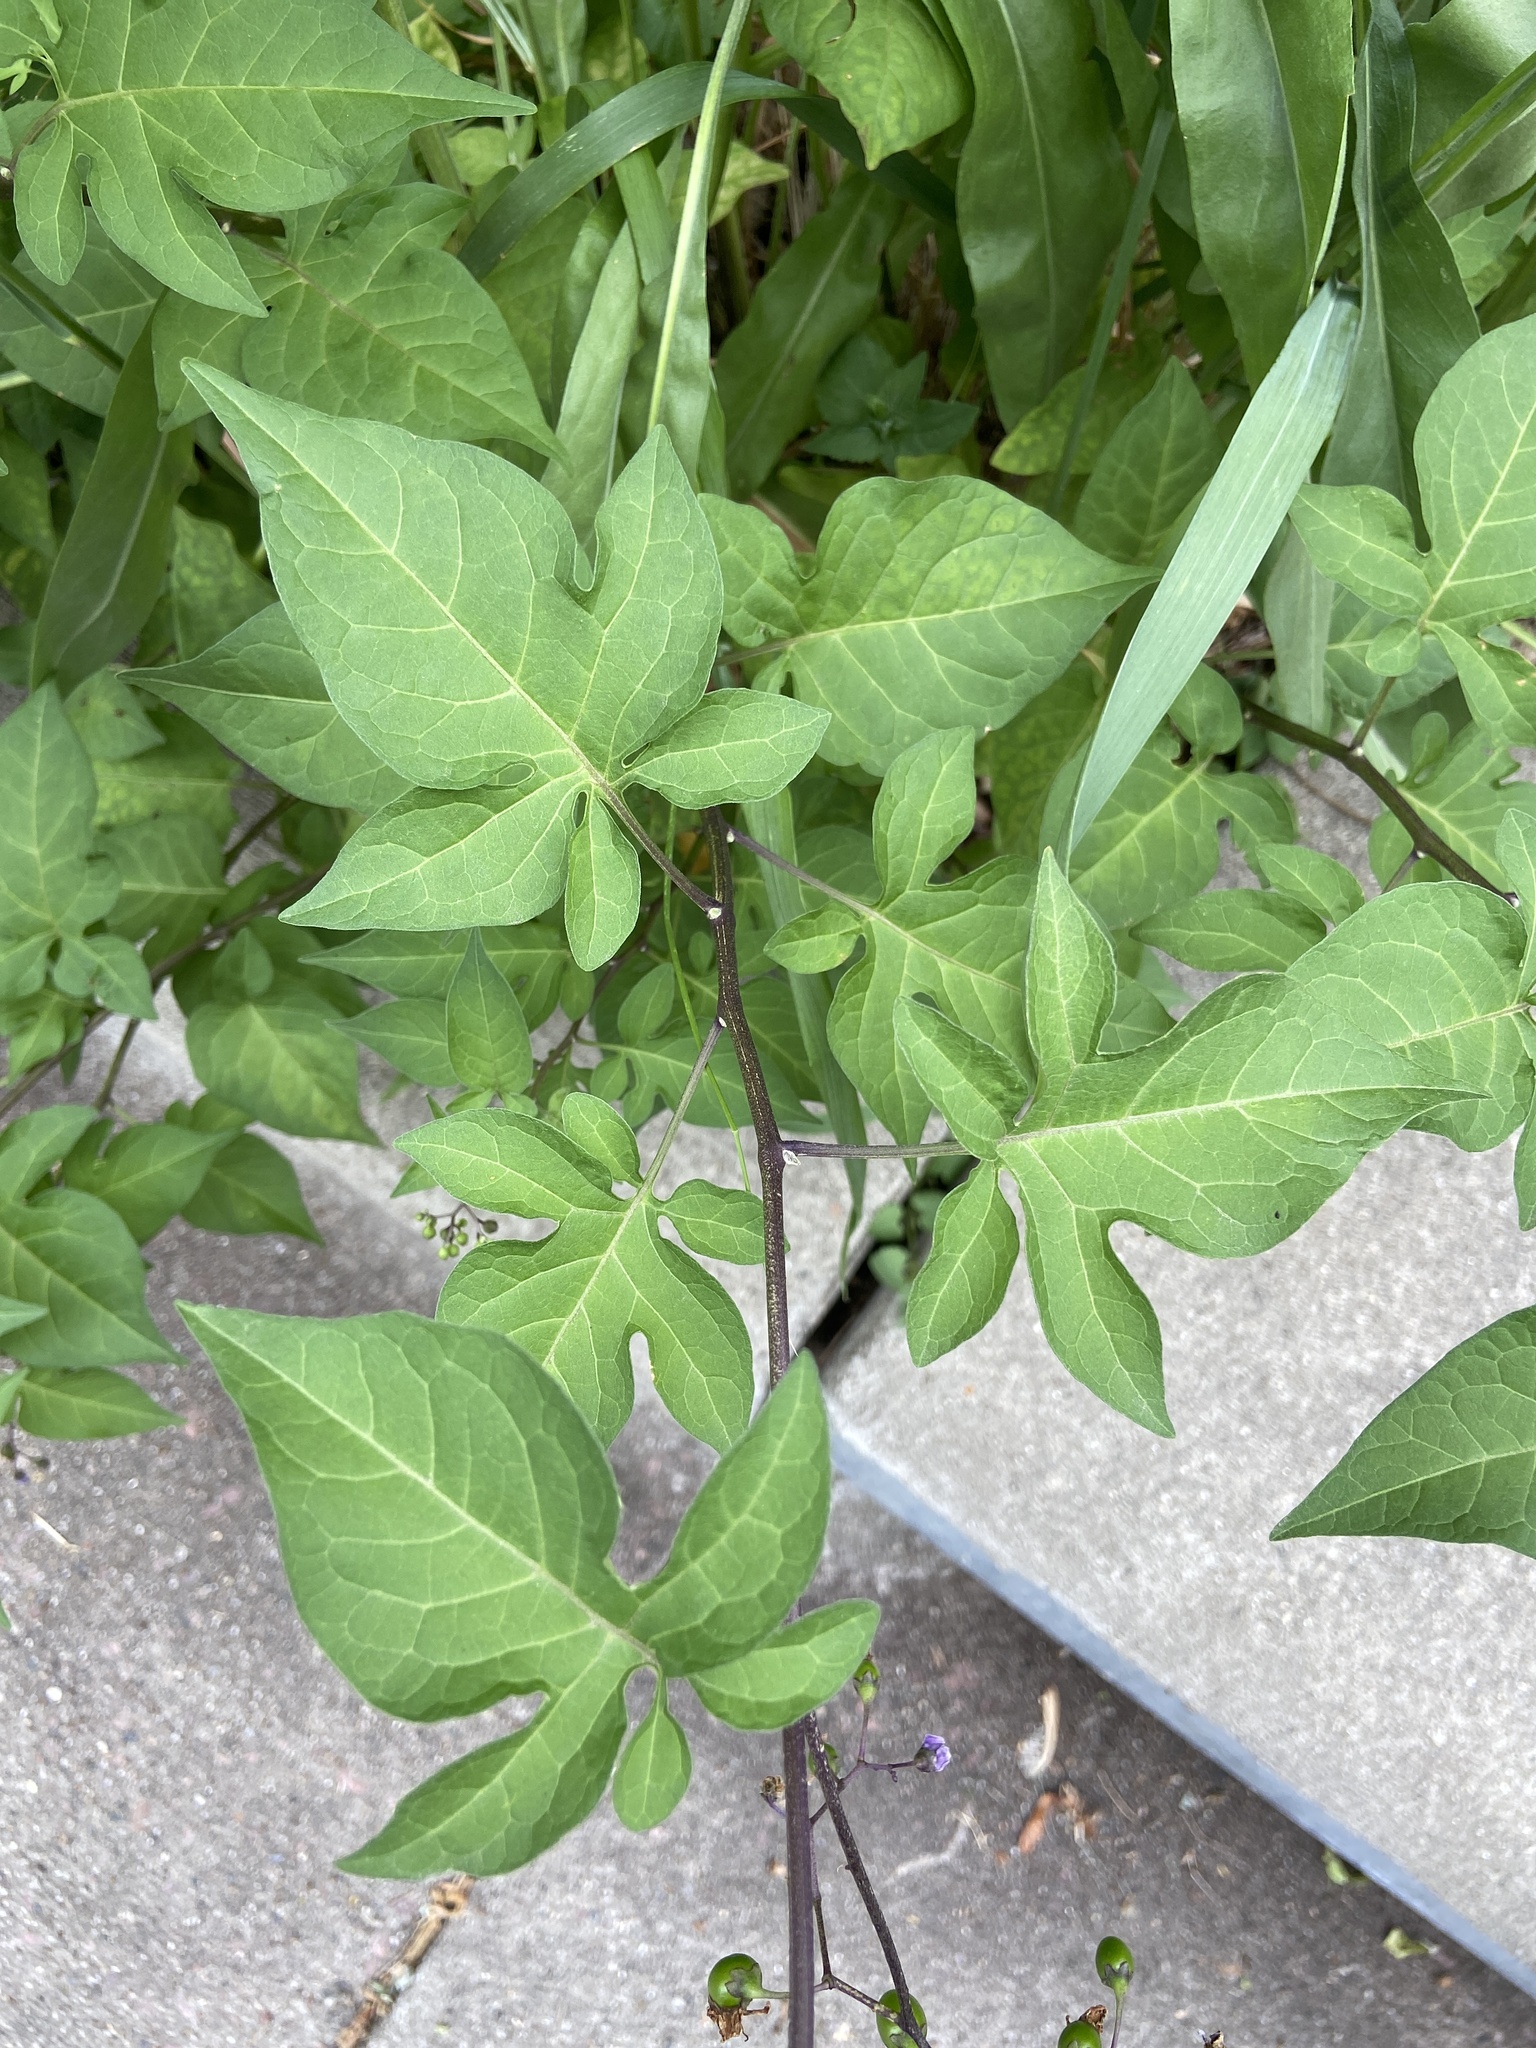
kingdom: Plantae
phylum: Tracheophyta
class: Magnoliopsida
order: Solanales
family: Solanaceae
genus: Solanum
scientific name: Solanum dulcamara
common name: Climbing nightshade
